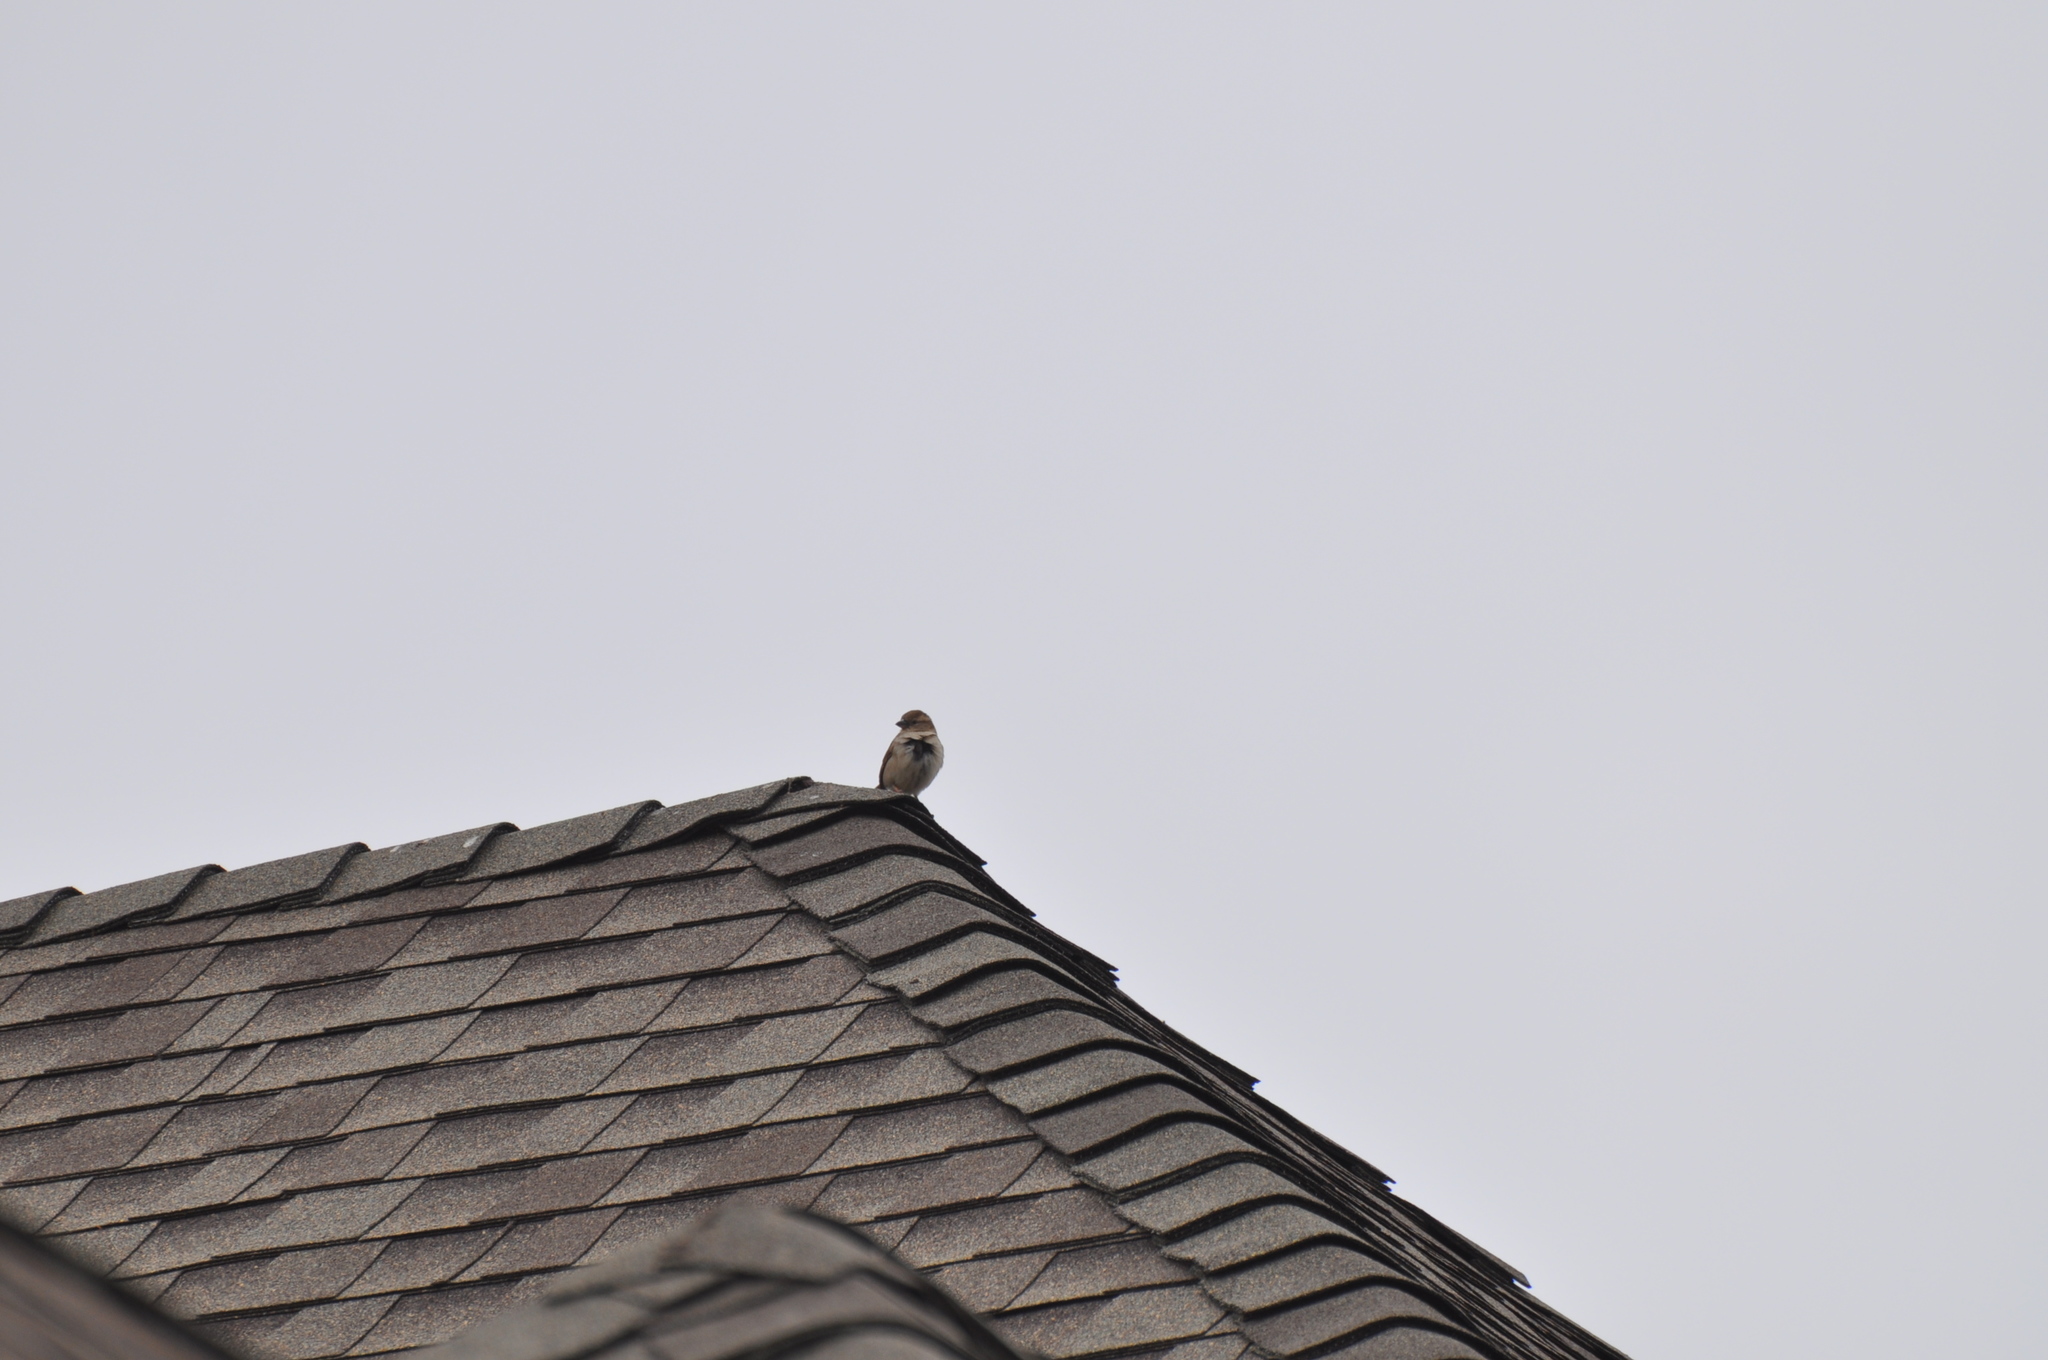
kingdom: Animalia
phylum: Chordata
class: Aves
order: Passeriformes
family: Passeridae
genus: Passer
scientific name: Passer domesticus
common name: House sparrow
